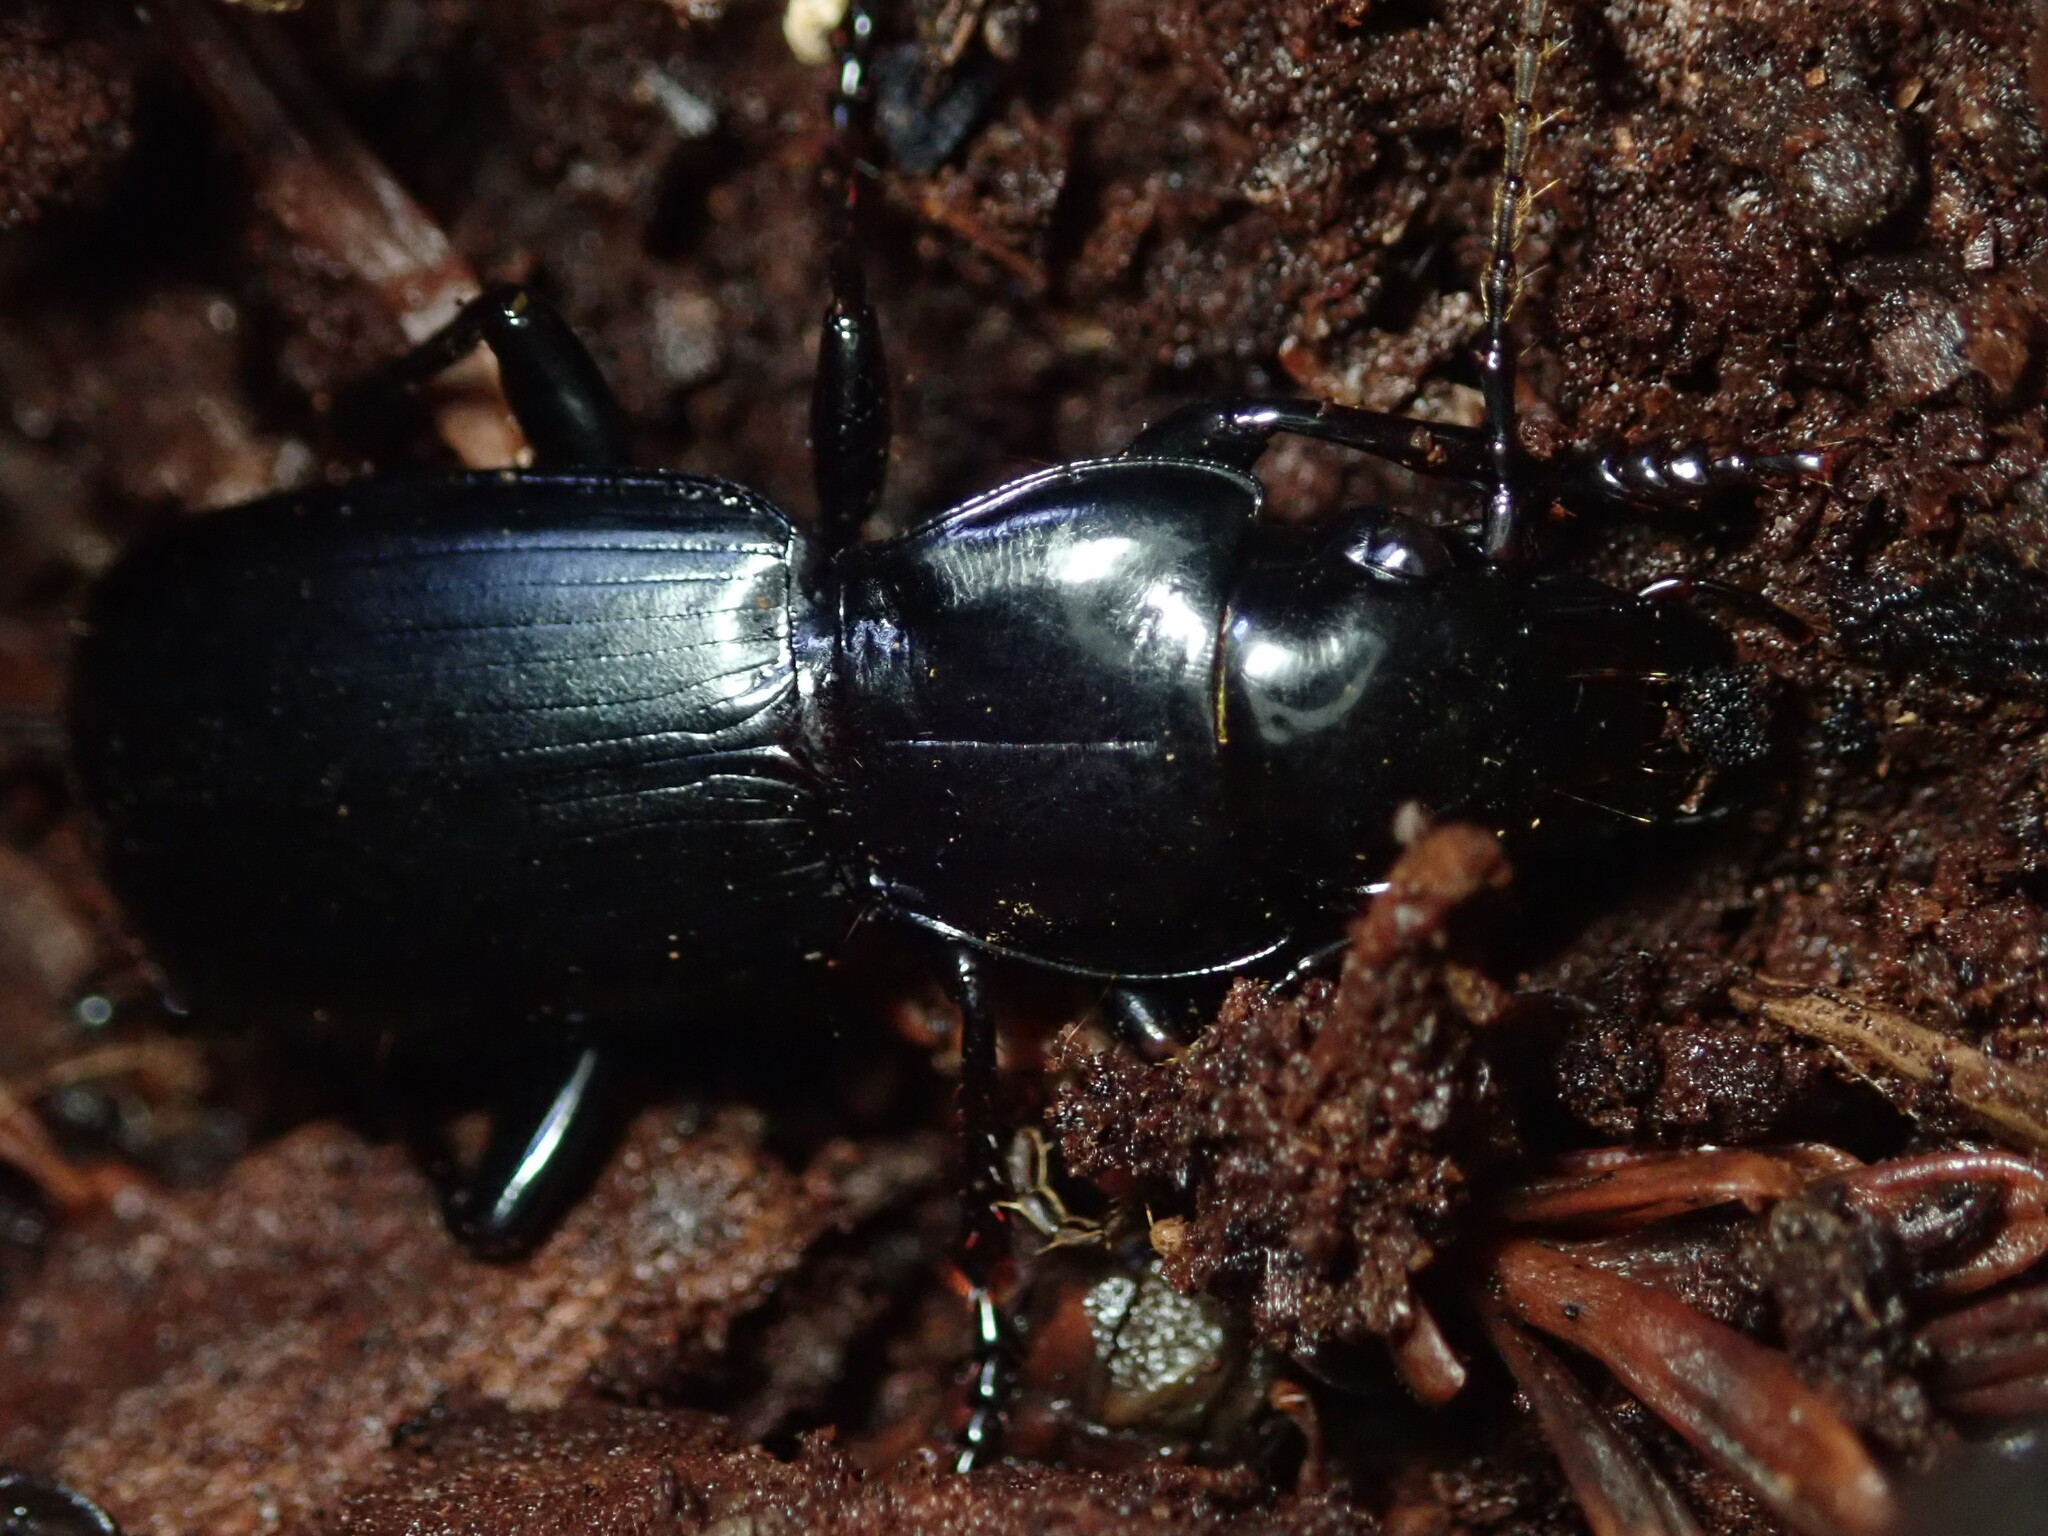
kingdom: Animalia
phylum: Arthropoda
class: Insecta
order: Coleoptera
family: Carabidae
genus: Pterostichus
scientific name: Pterostichus lama
